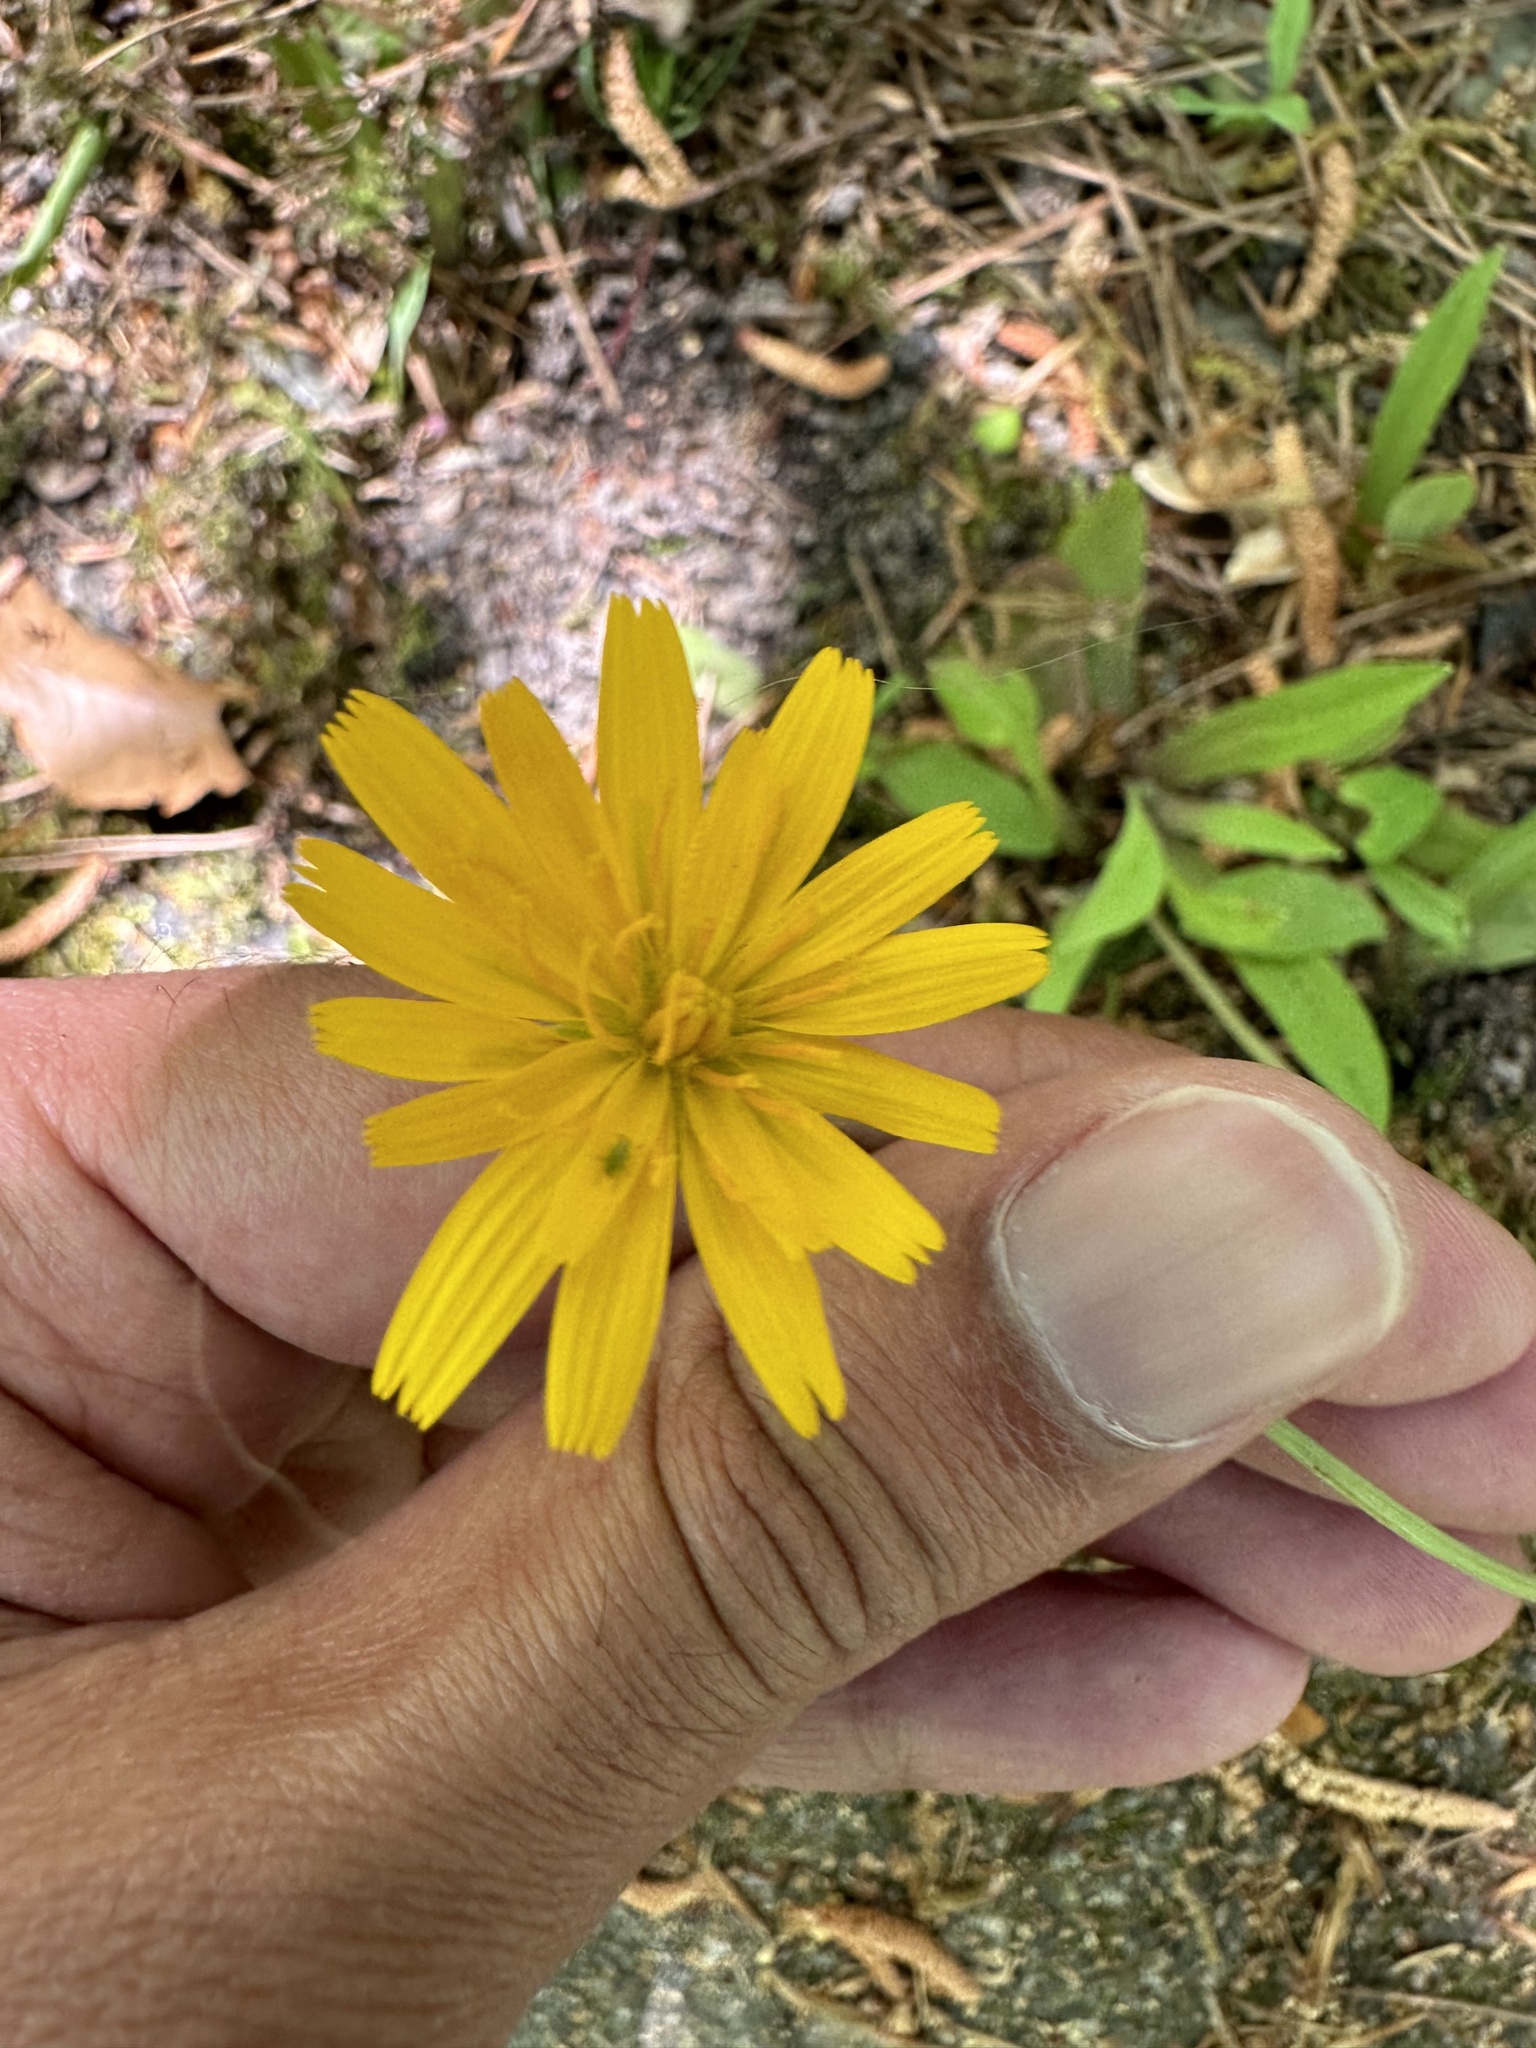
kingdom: Plantae
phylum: Tracheophyta
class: Magnoliopsida
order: Asterales
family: Asteraceae
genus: Krigia
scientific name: Krigia dandelion
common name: Colonial dwarf-dandelion
